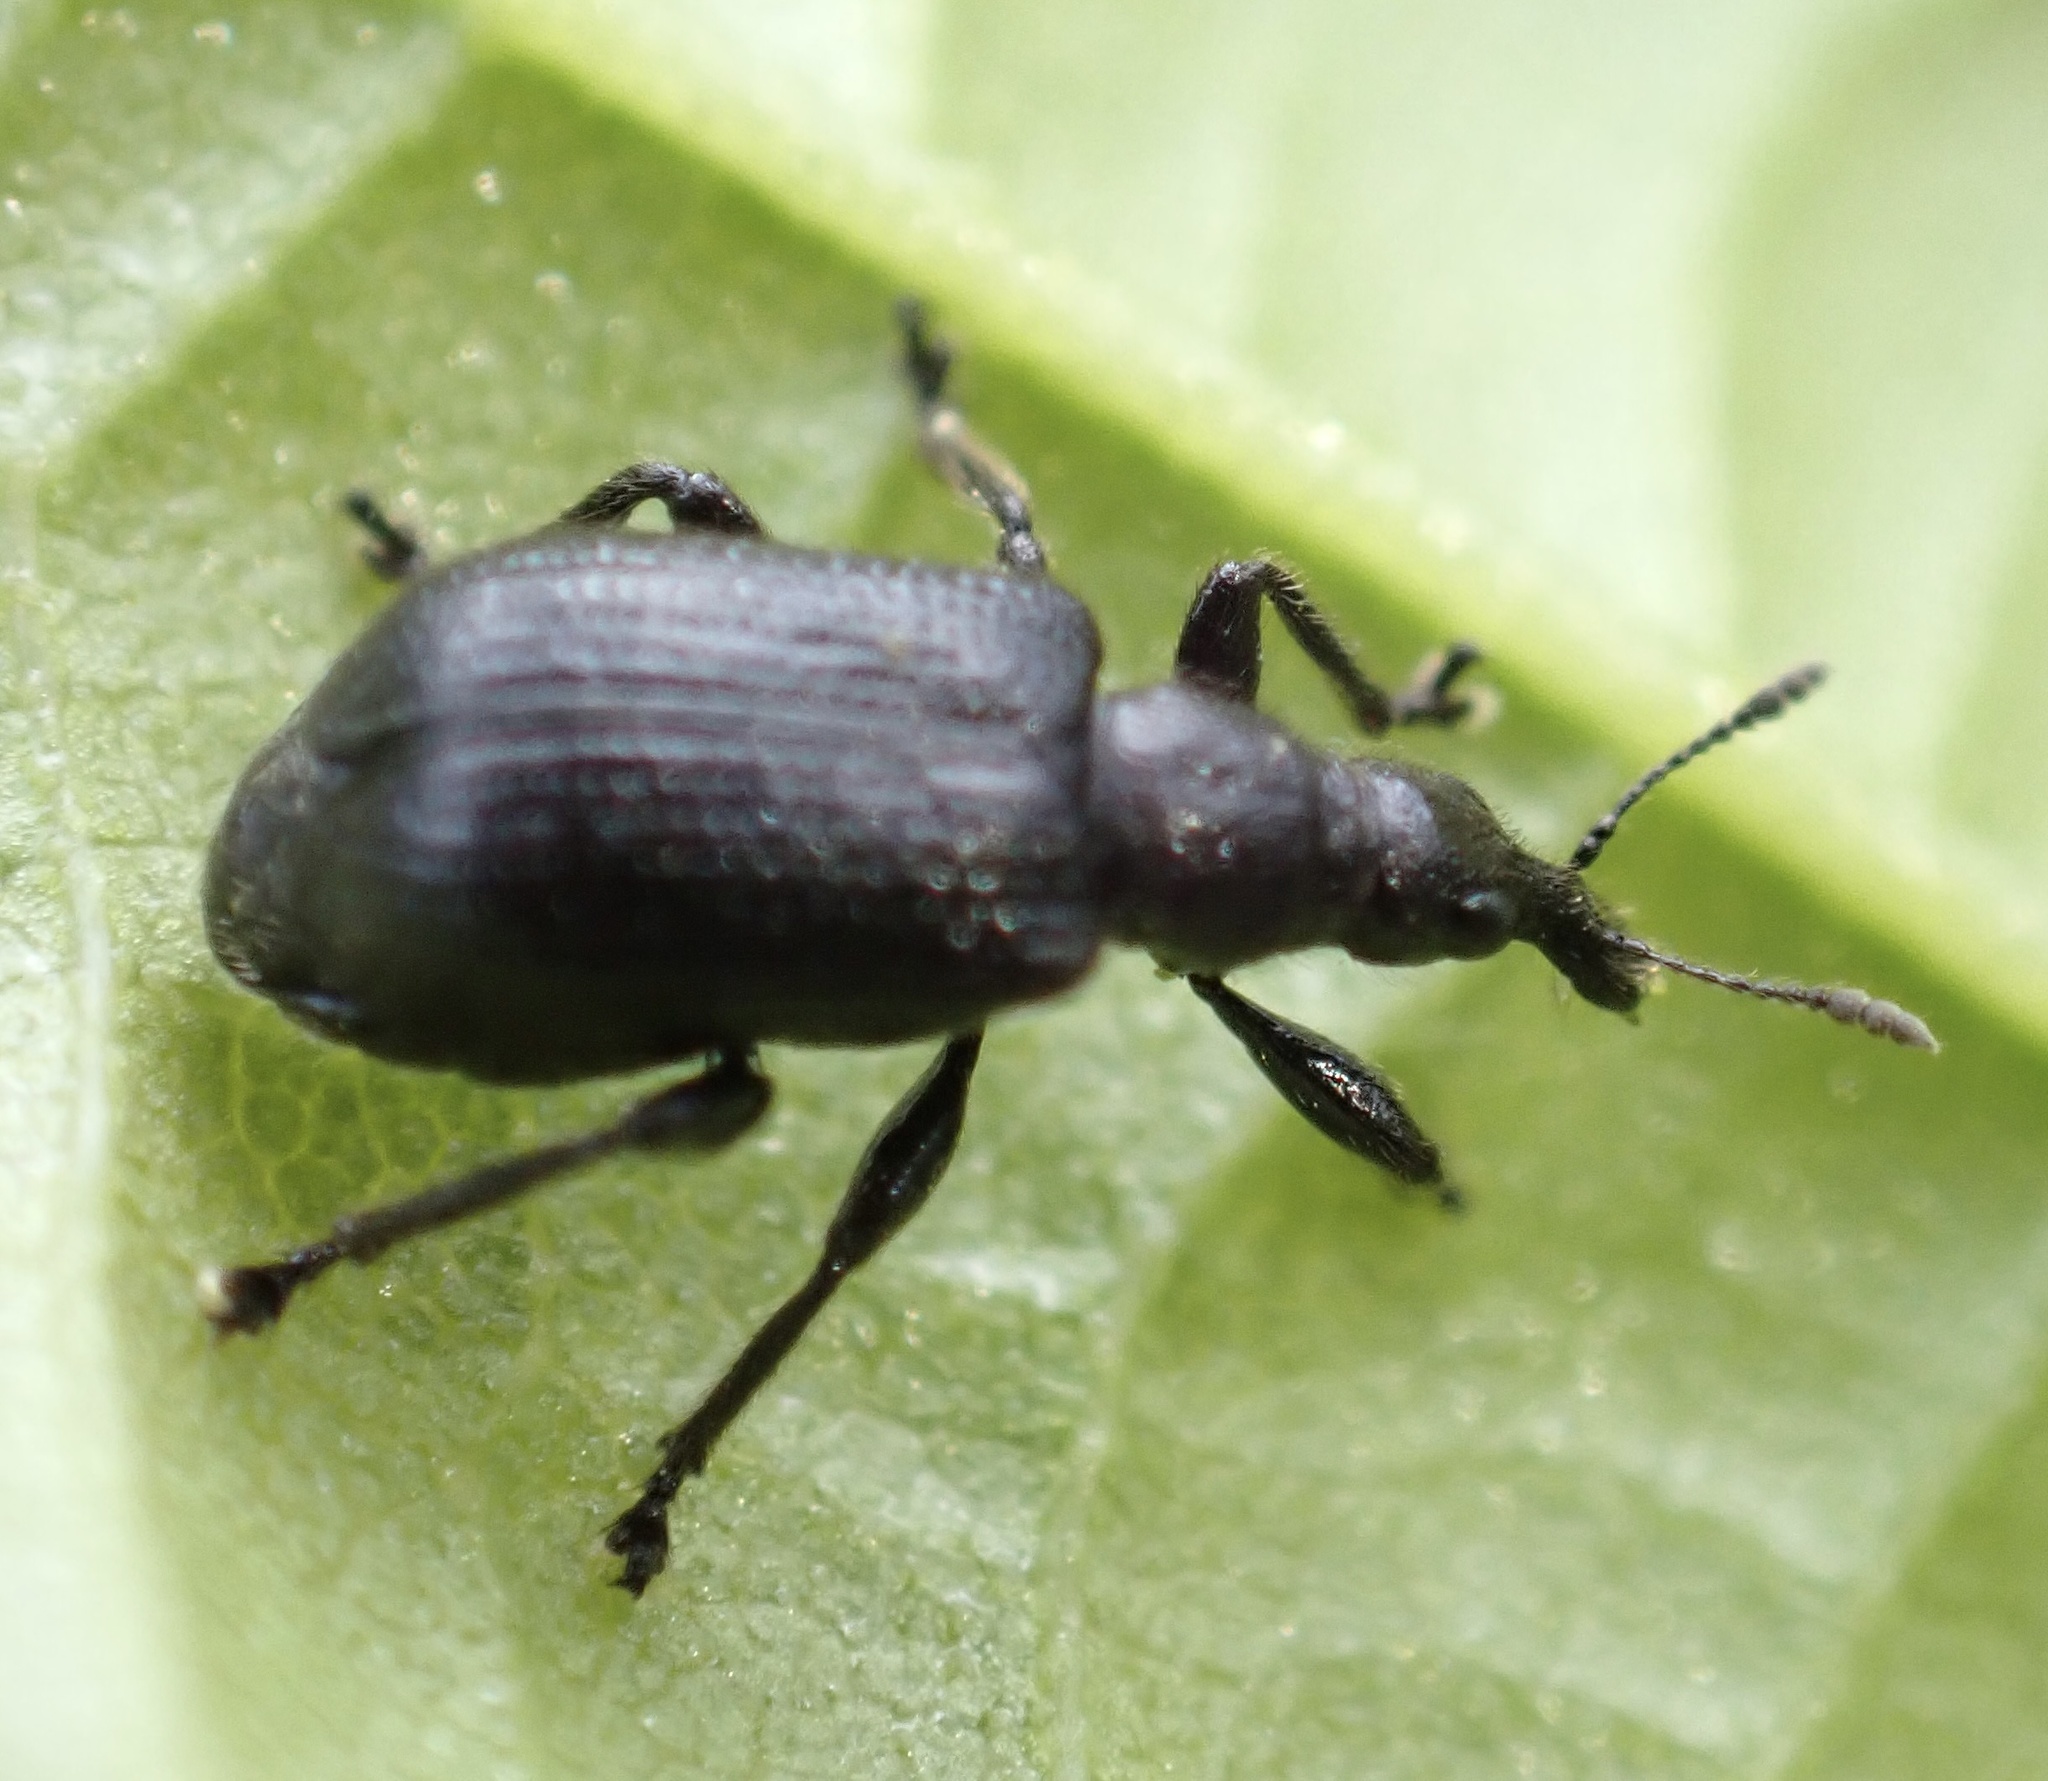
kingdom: Animalia
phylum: Arthropoda
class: Insecta
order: Coleoptera
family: Attelabidae
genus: Deporaus
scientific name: Deporaus betulae
